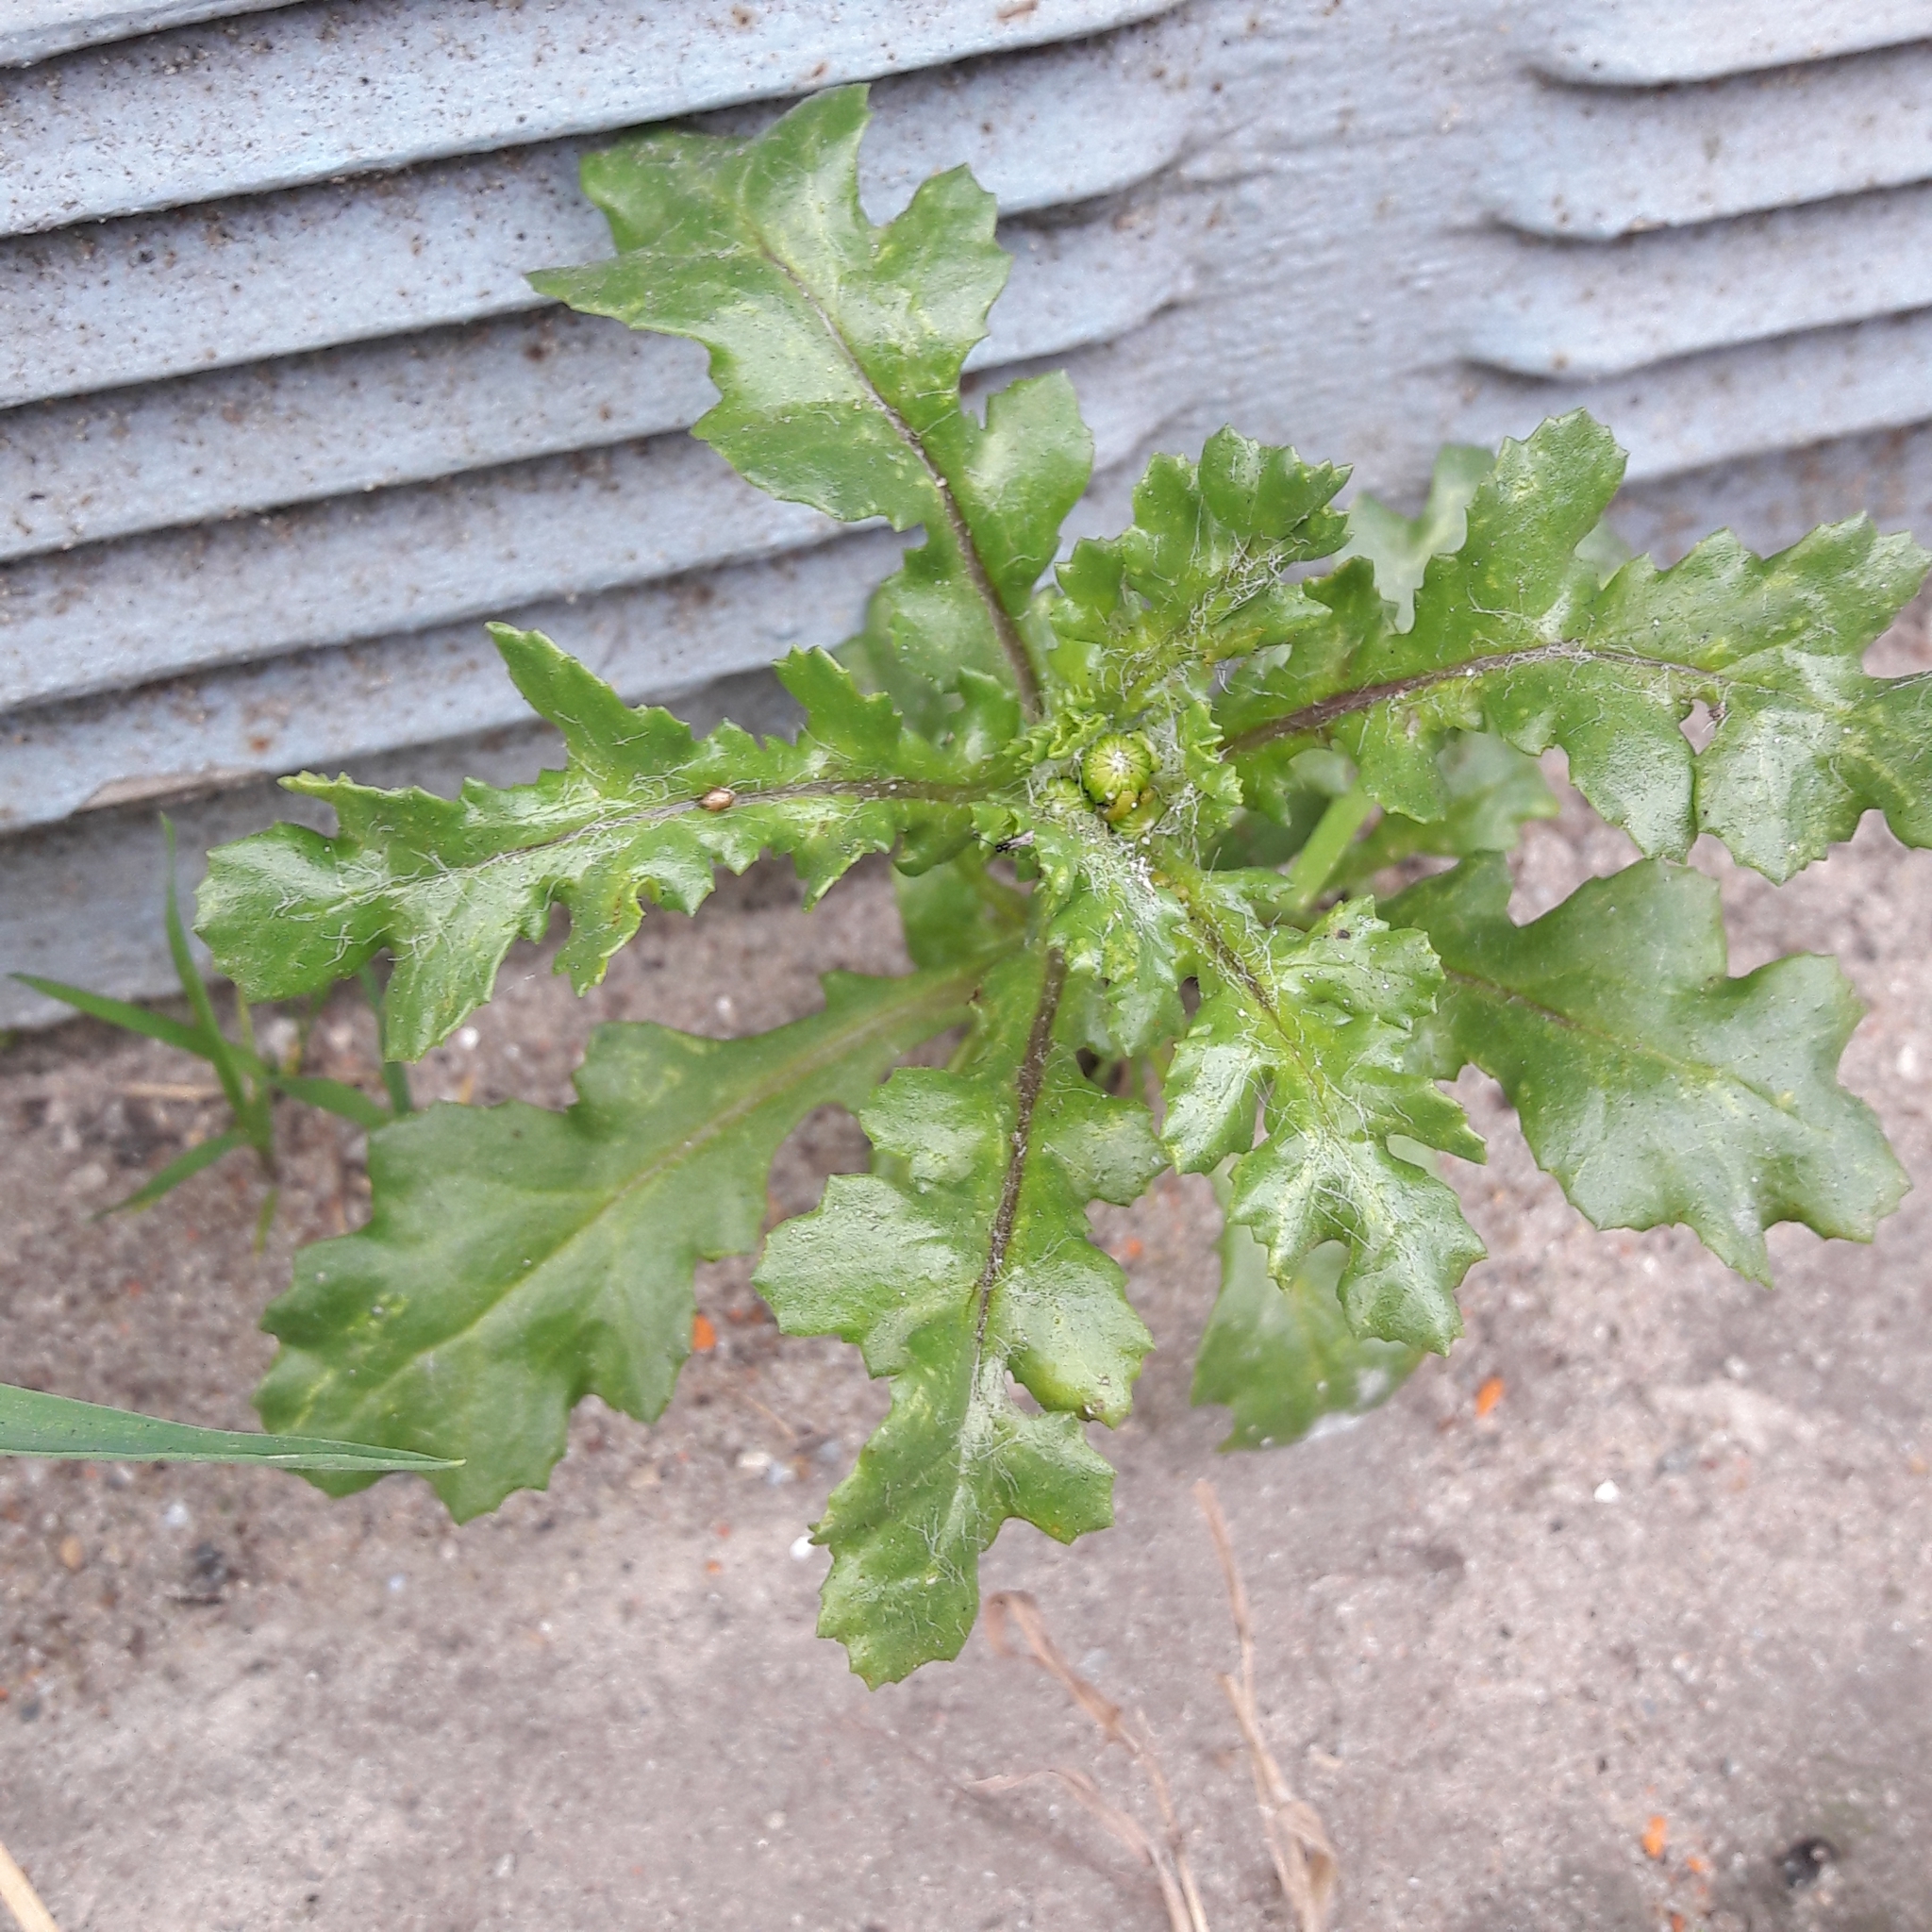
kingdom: Plantae
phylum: Tracheophyta
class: Magnoliopsida
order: Asterales
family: Asteraceae
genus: Senecio
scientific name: Senecio vulgaris
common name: Old-man-in-the-spring
